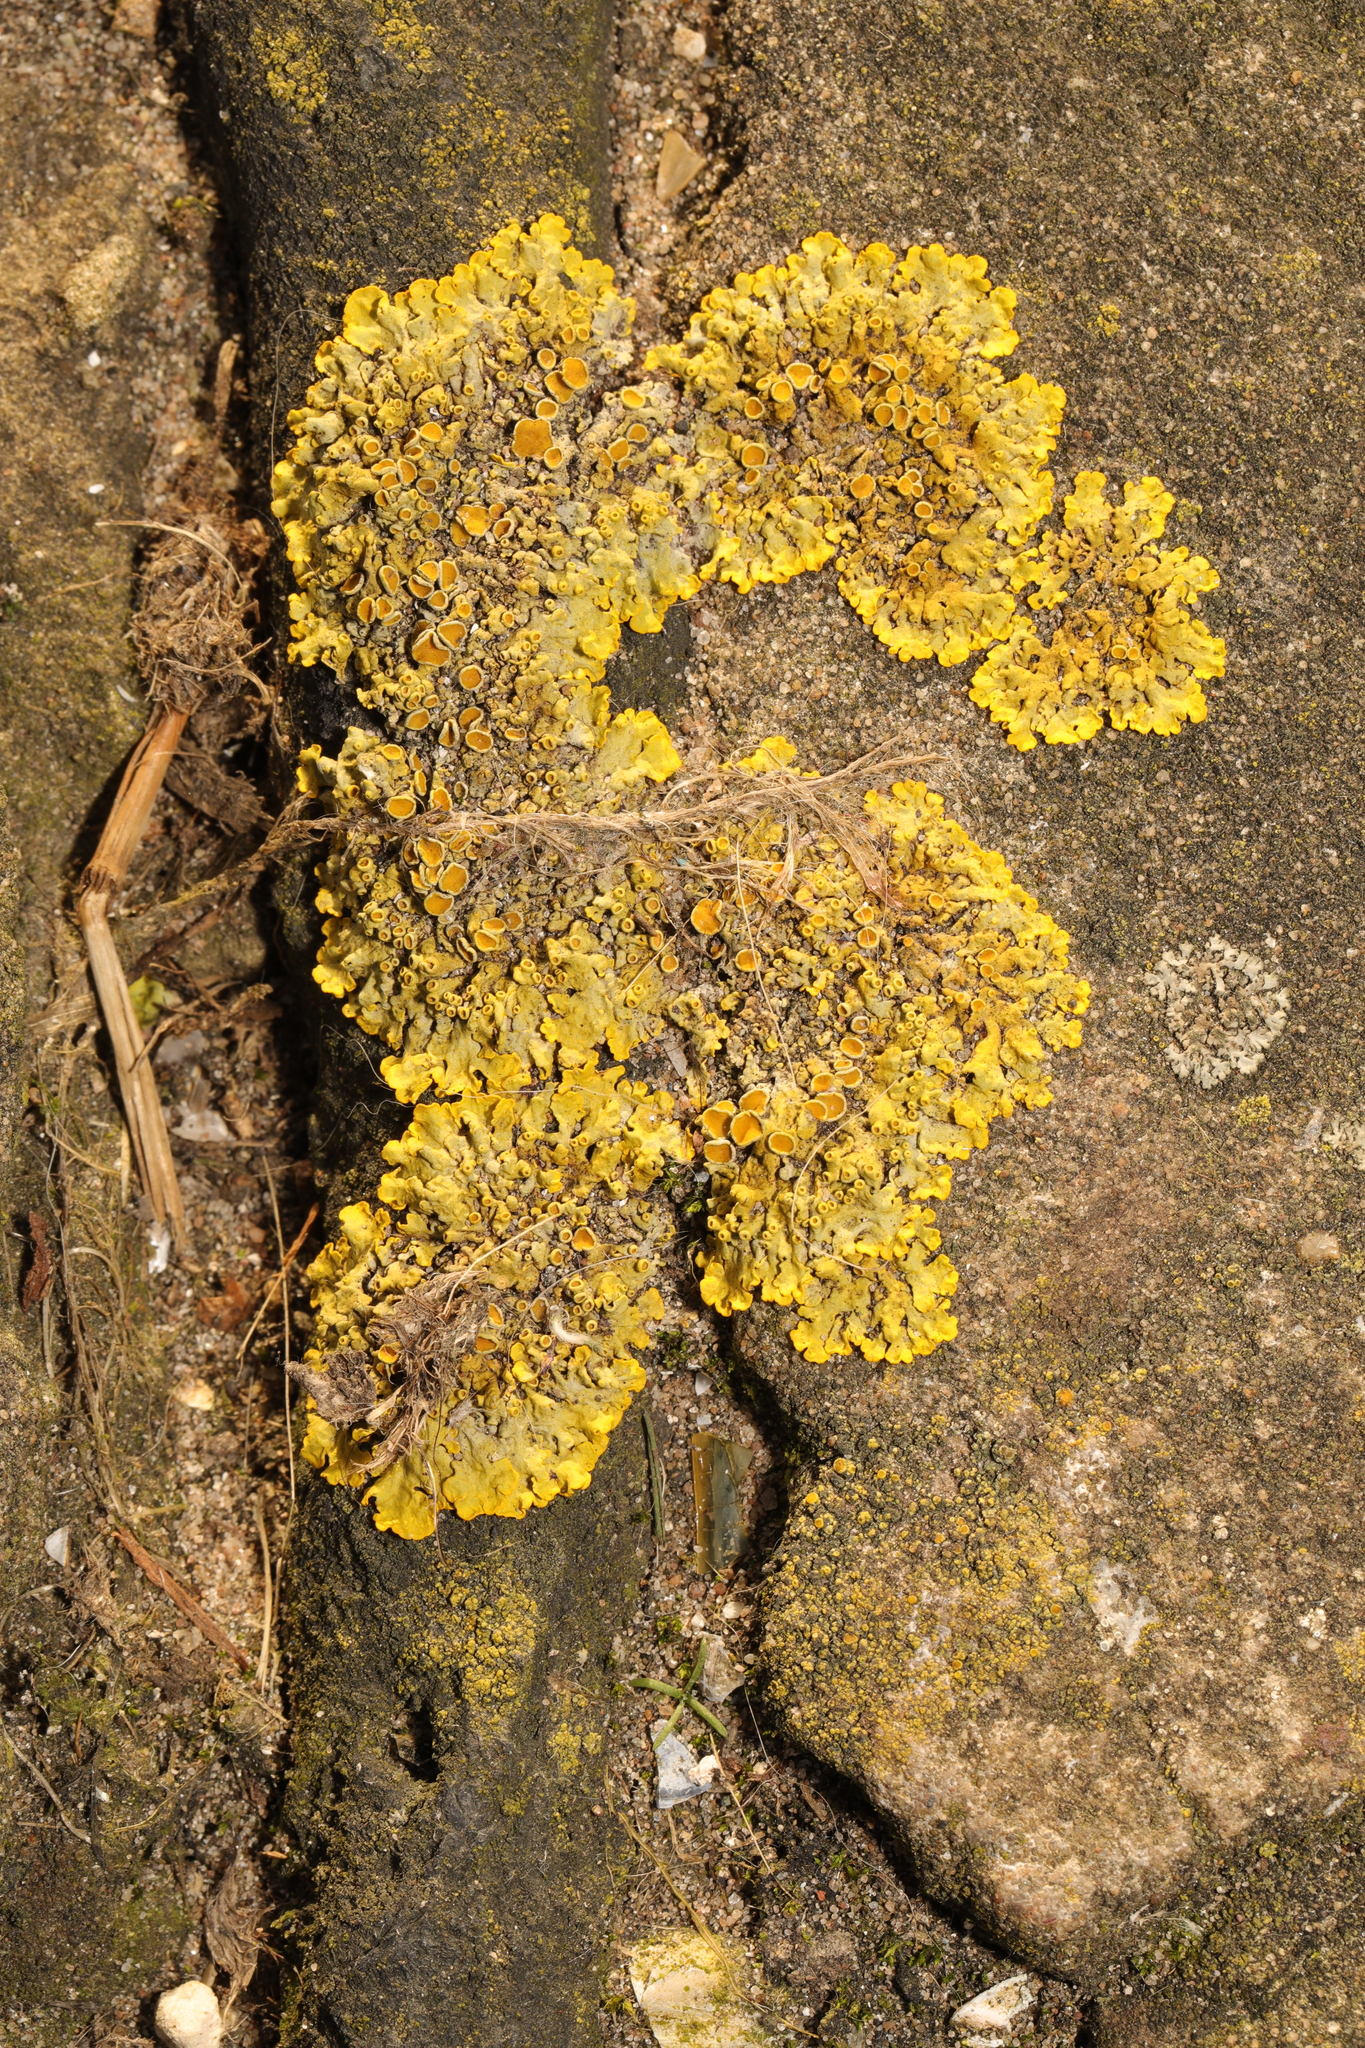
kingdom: Fungi
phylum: Ascomycota
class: Lecanoromycetes
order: Teloschistales
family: Teloschistaceae
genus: Xanthoria
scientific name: Xanthoria parietina
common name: Common orange lichen
